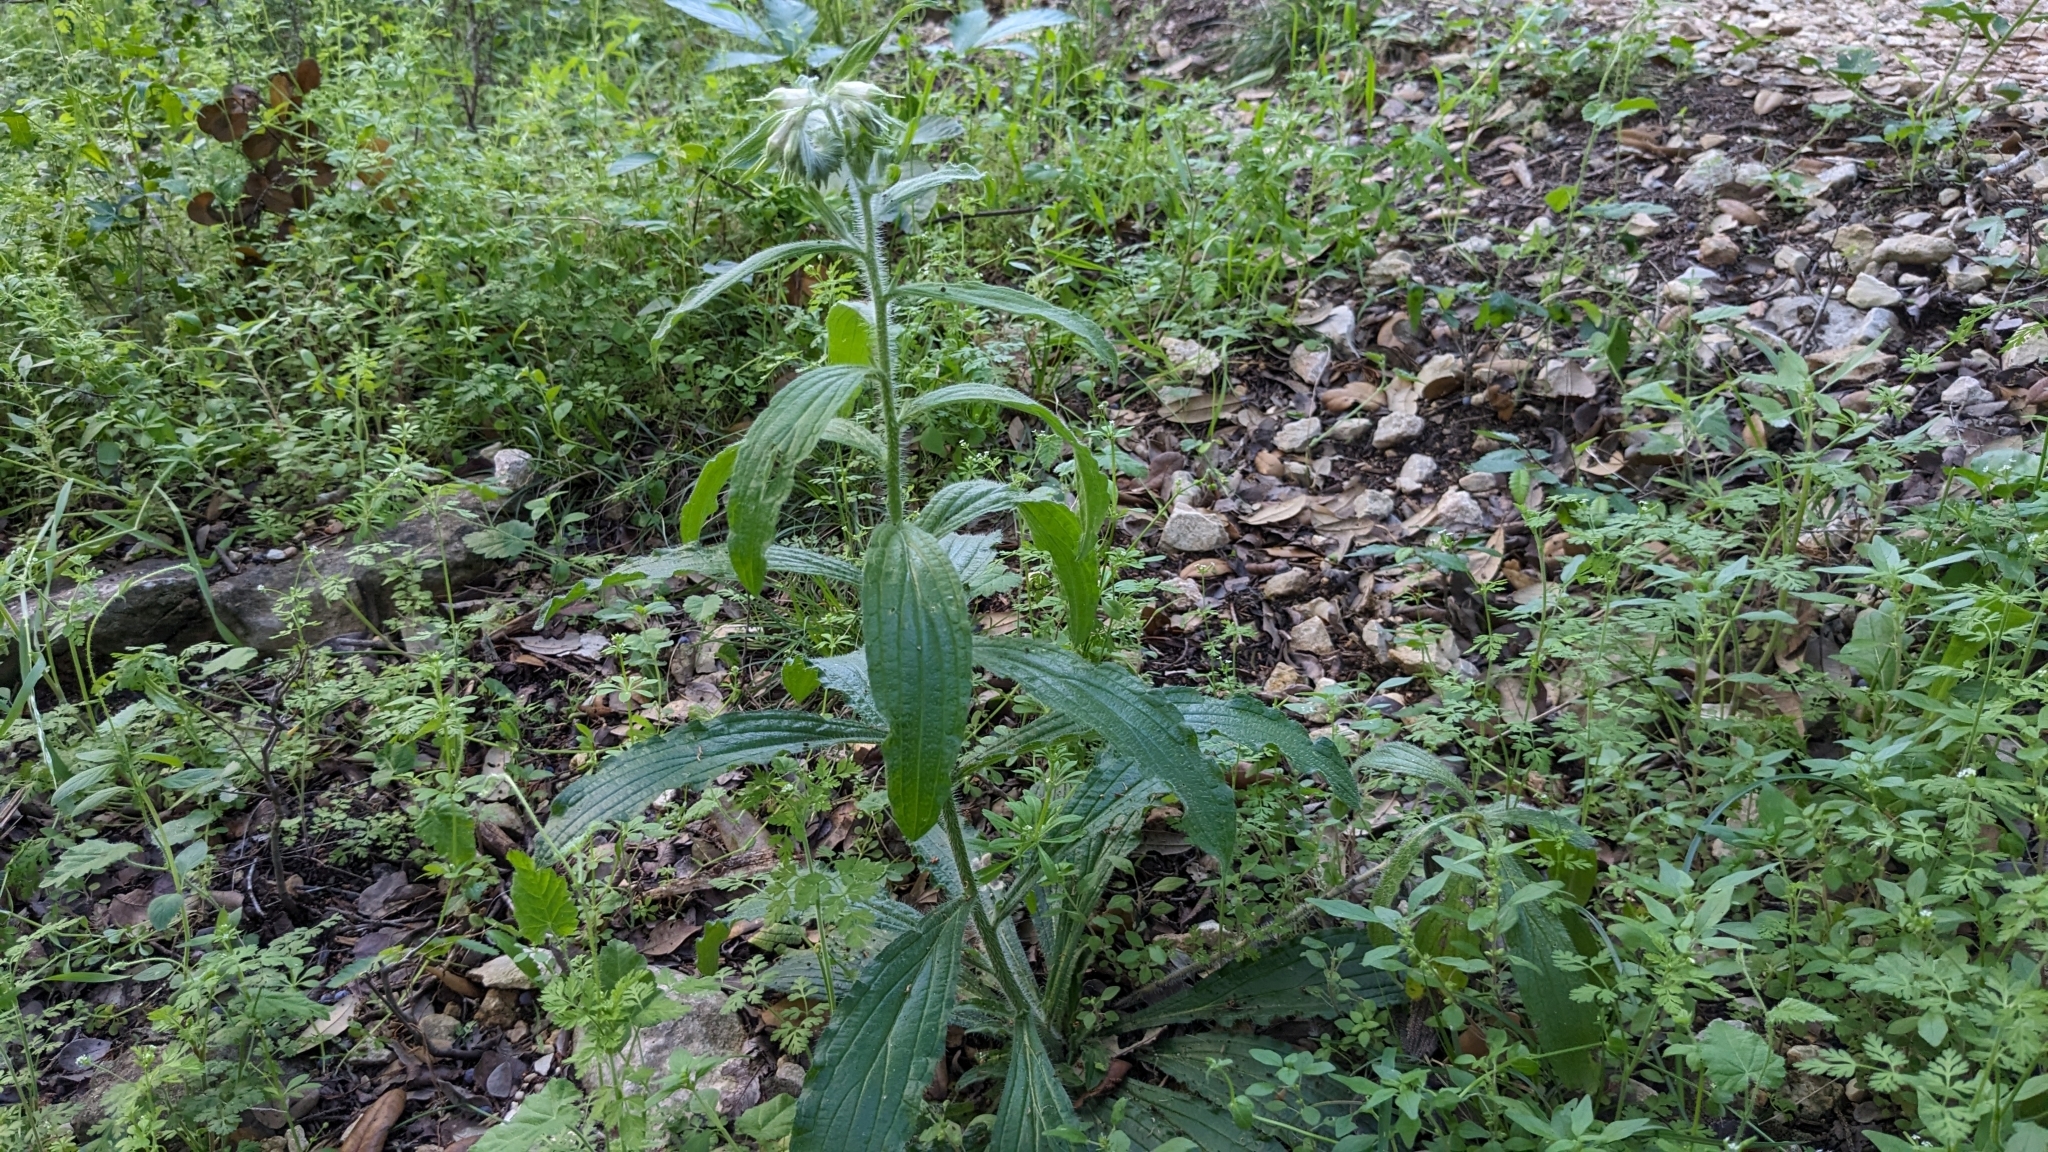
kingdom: Plantae
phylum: Tracheophyta
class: Magnoliopsida
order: Boraginales
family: Boraginaceae
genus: Lithospermum
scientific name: Lithospermum caroliniense
